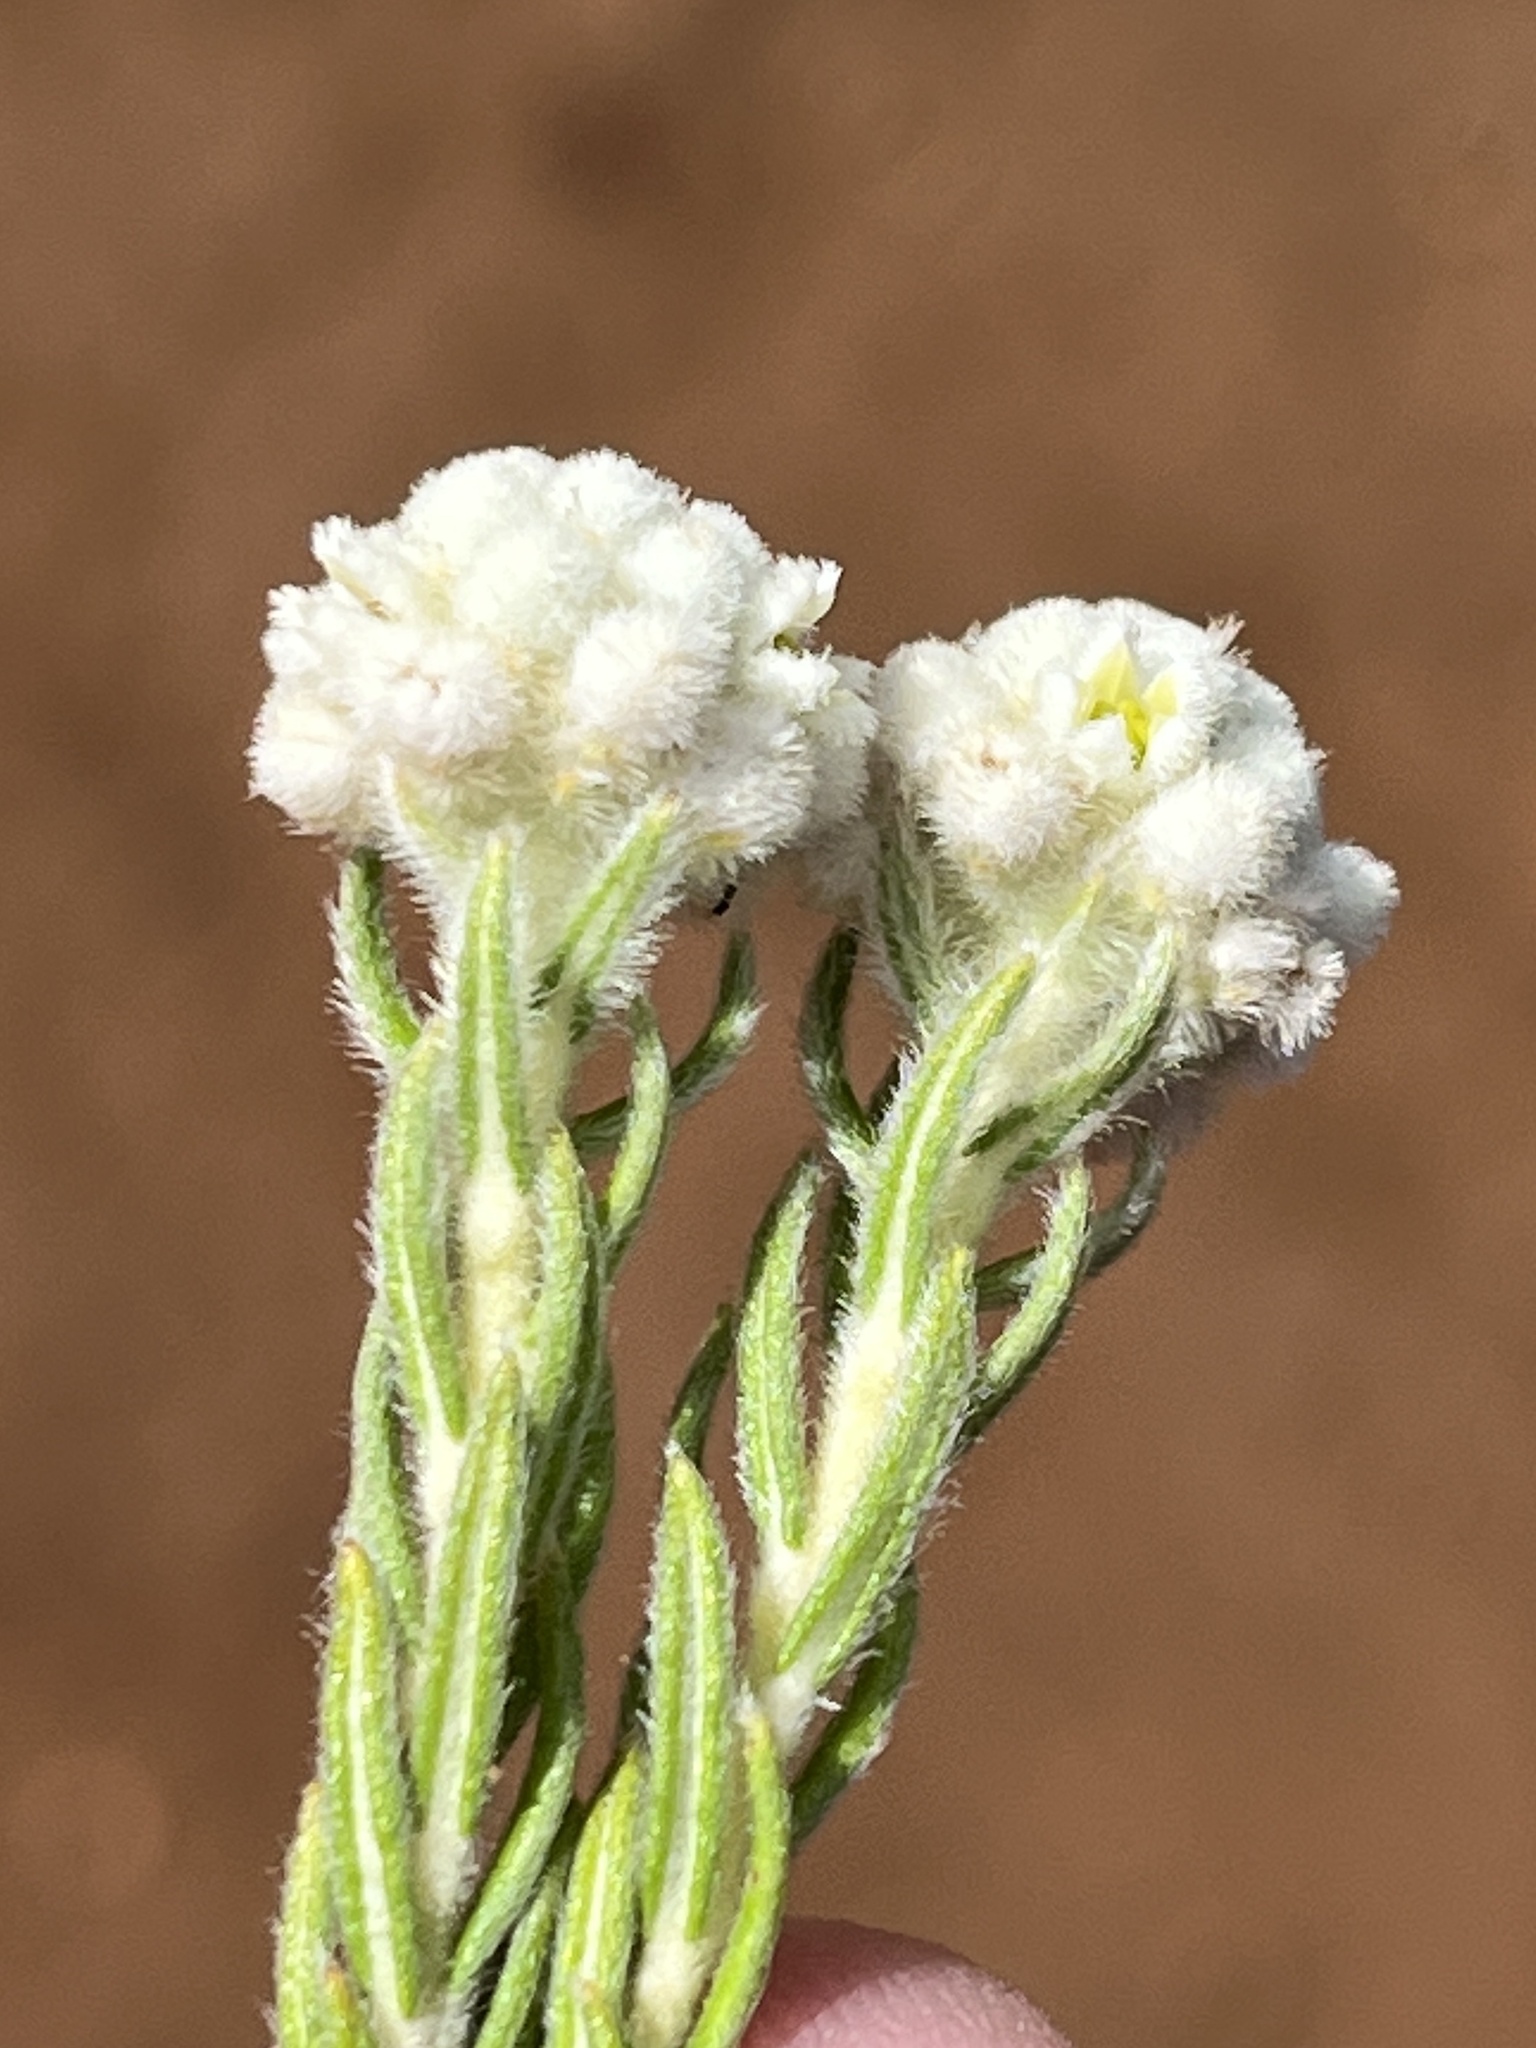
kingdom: Plantae
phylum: Tracheophyta
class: Magnoliopsida
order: Rosales
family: Rhamnaceae
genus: Phylica
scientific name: Phylica imberbis
